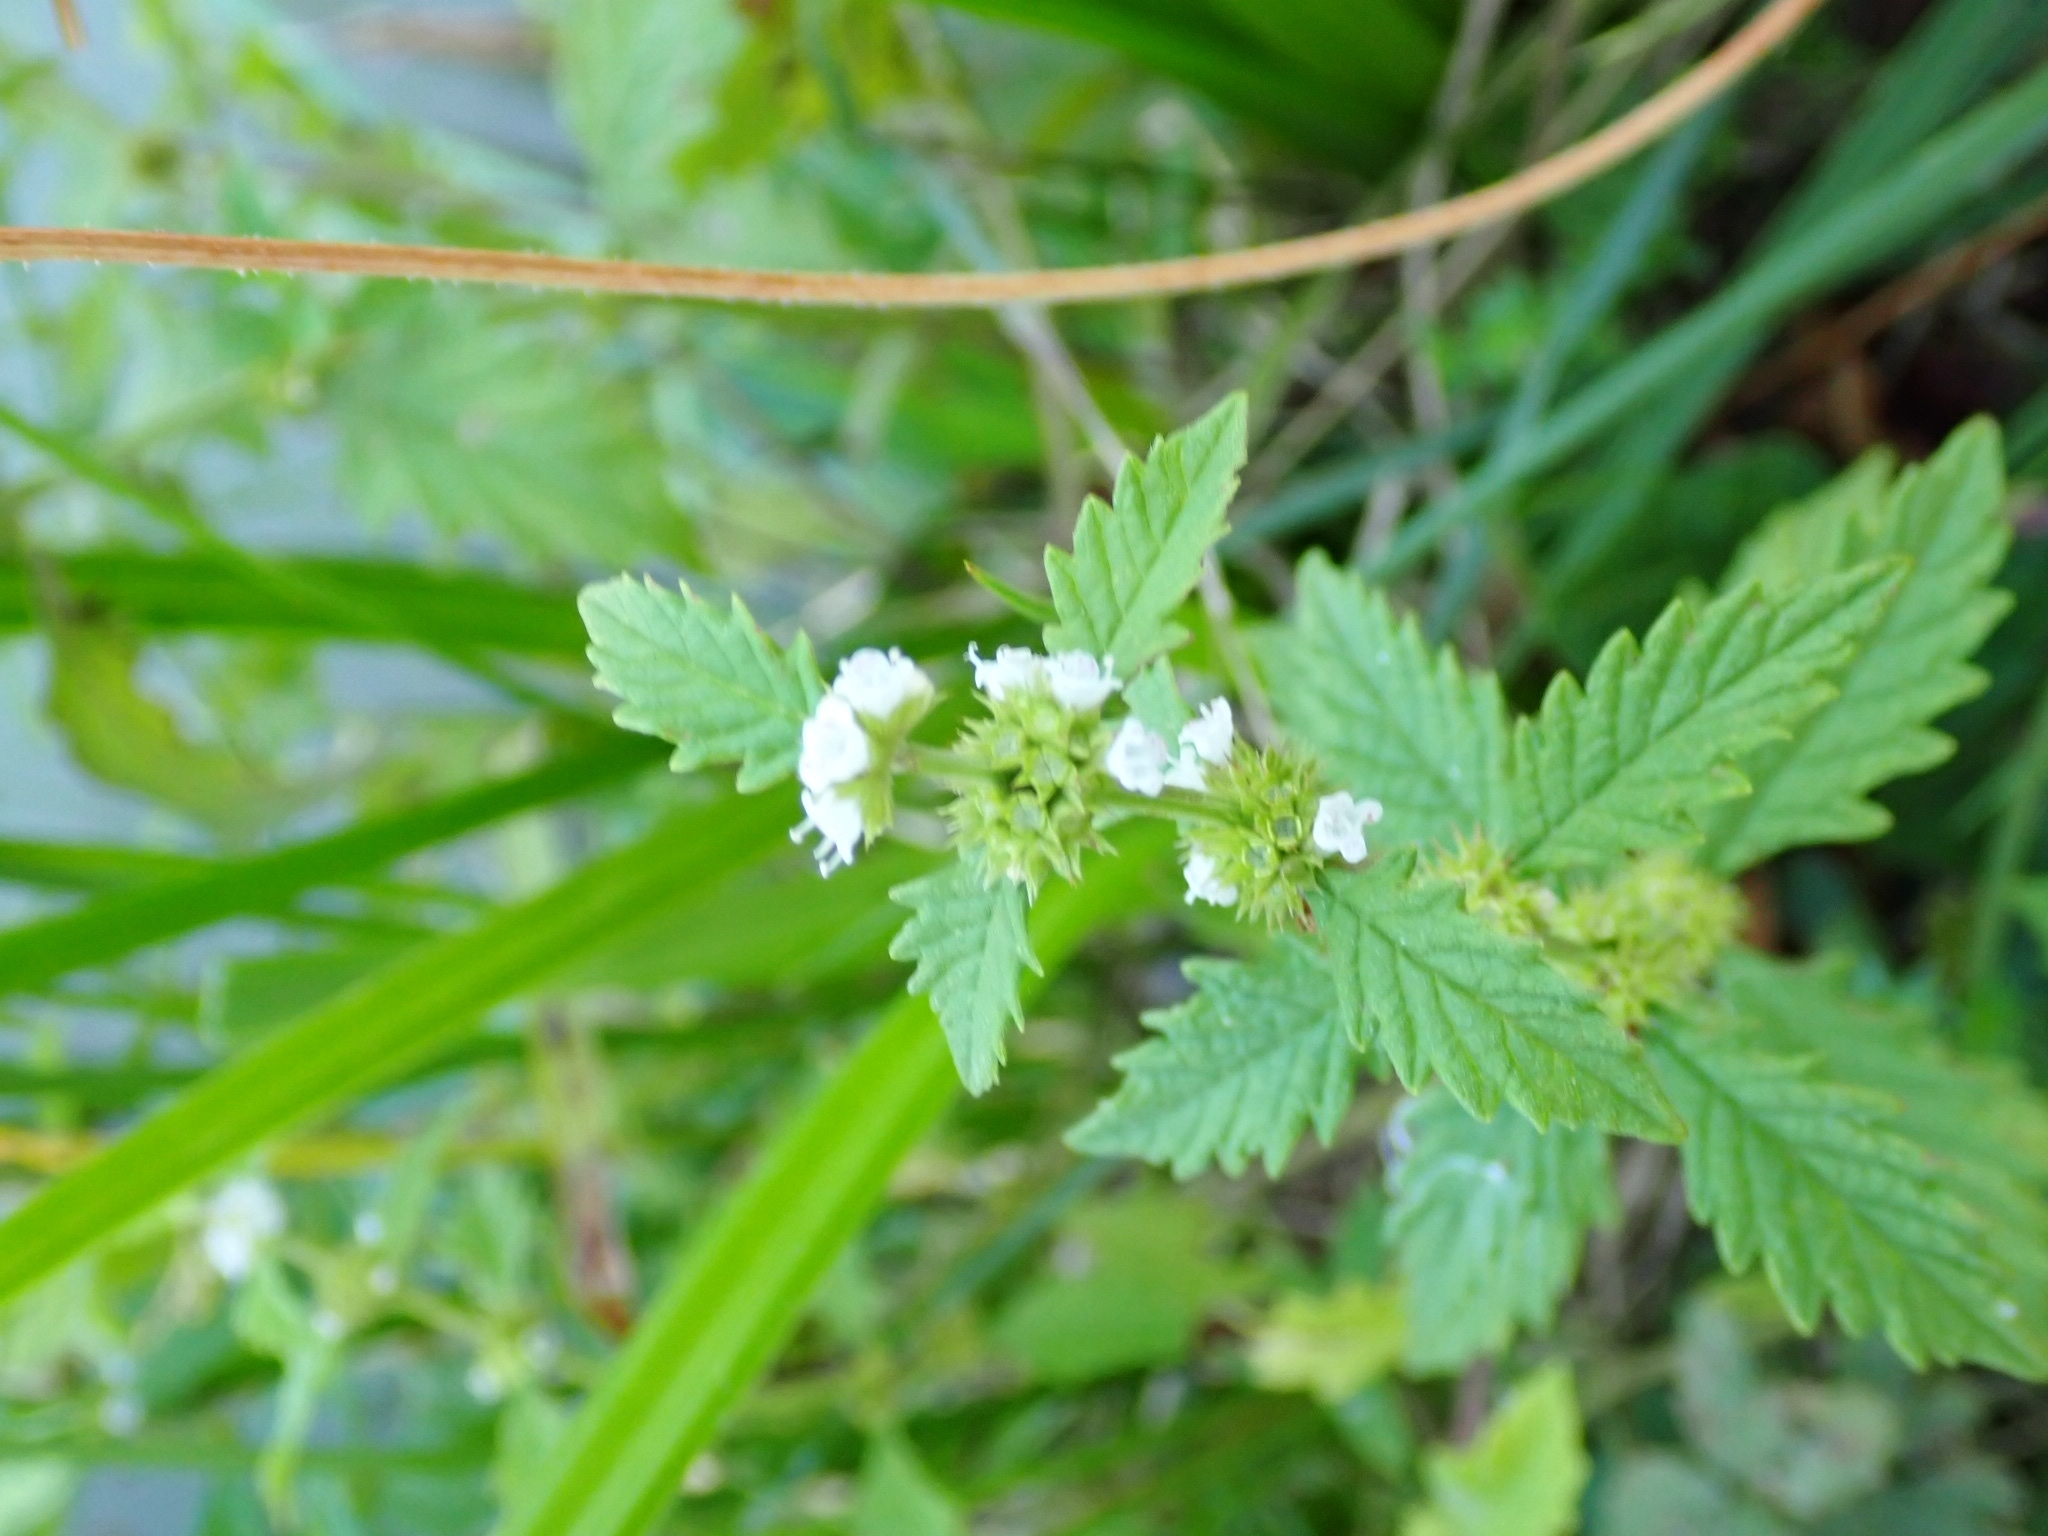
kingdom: Plantae
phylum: Tracheophyta
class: Magnoliopsida
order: Lamiales
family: Lamiaceae
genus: Lycopus
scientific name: Lycopus europaeus
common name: European bugleweed
